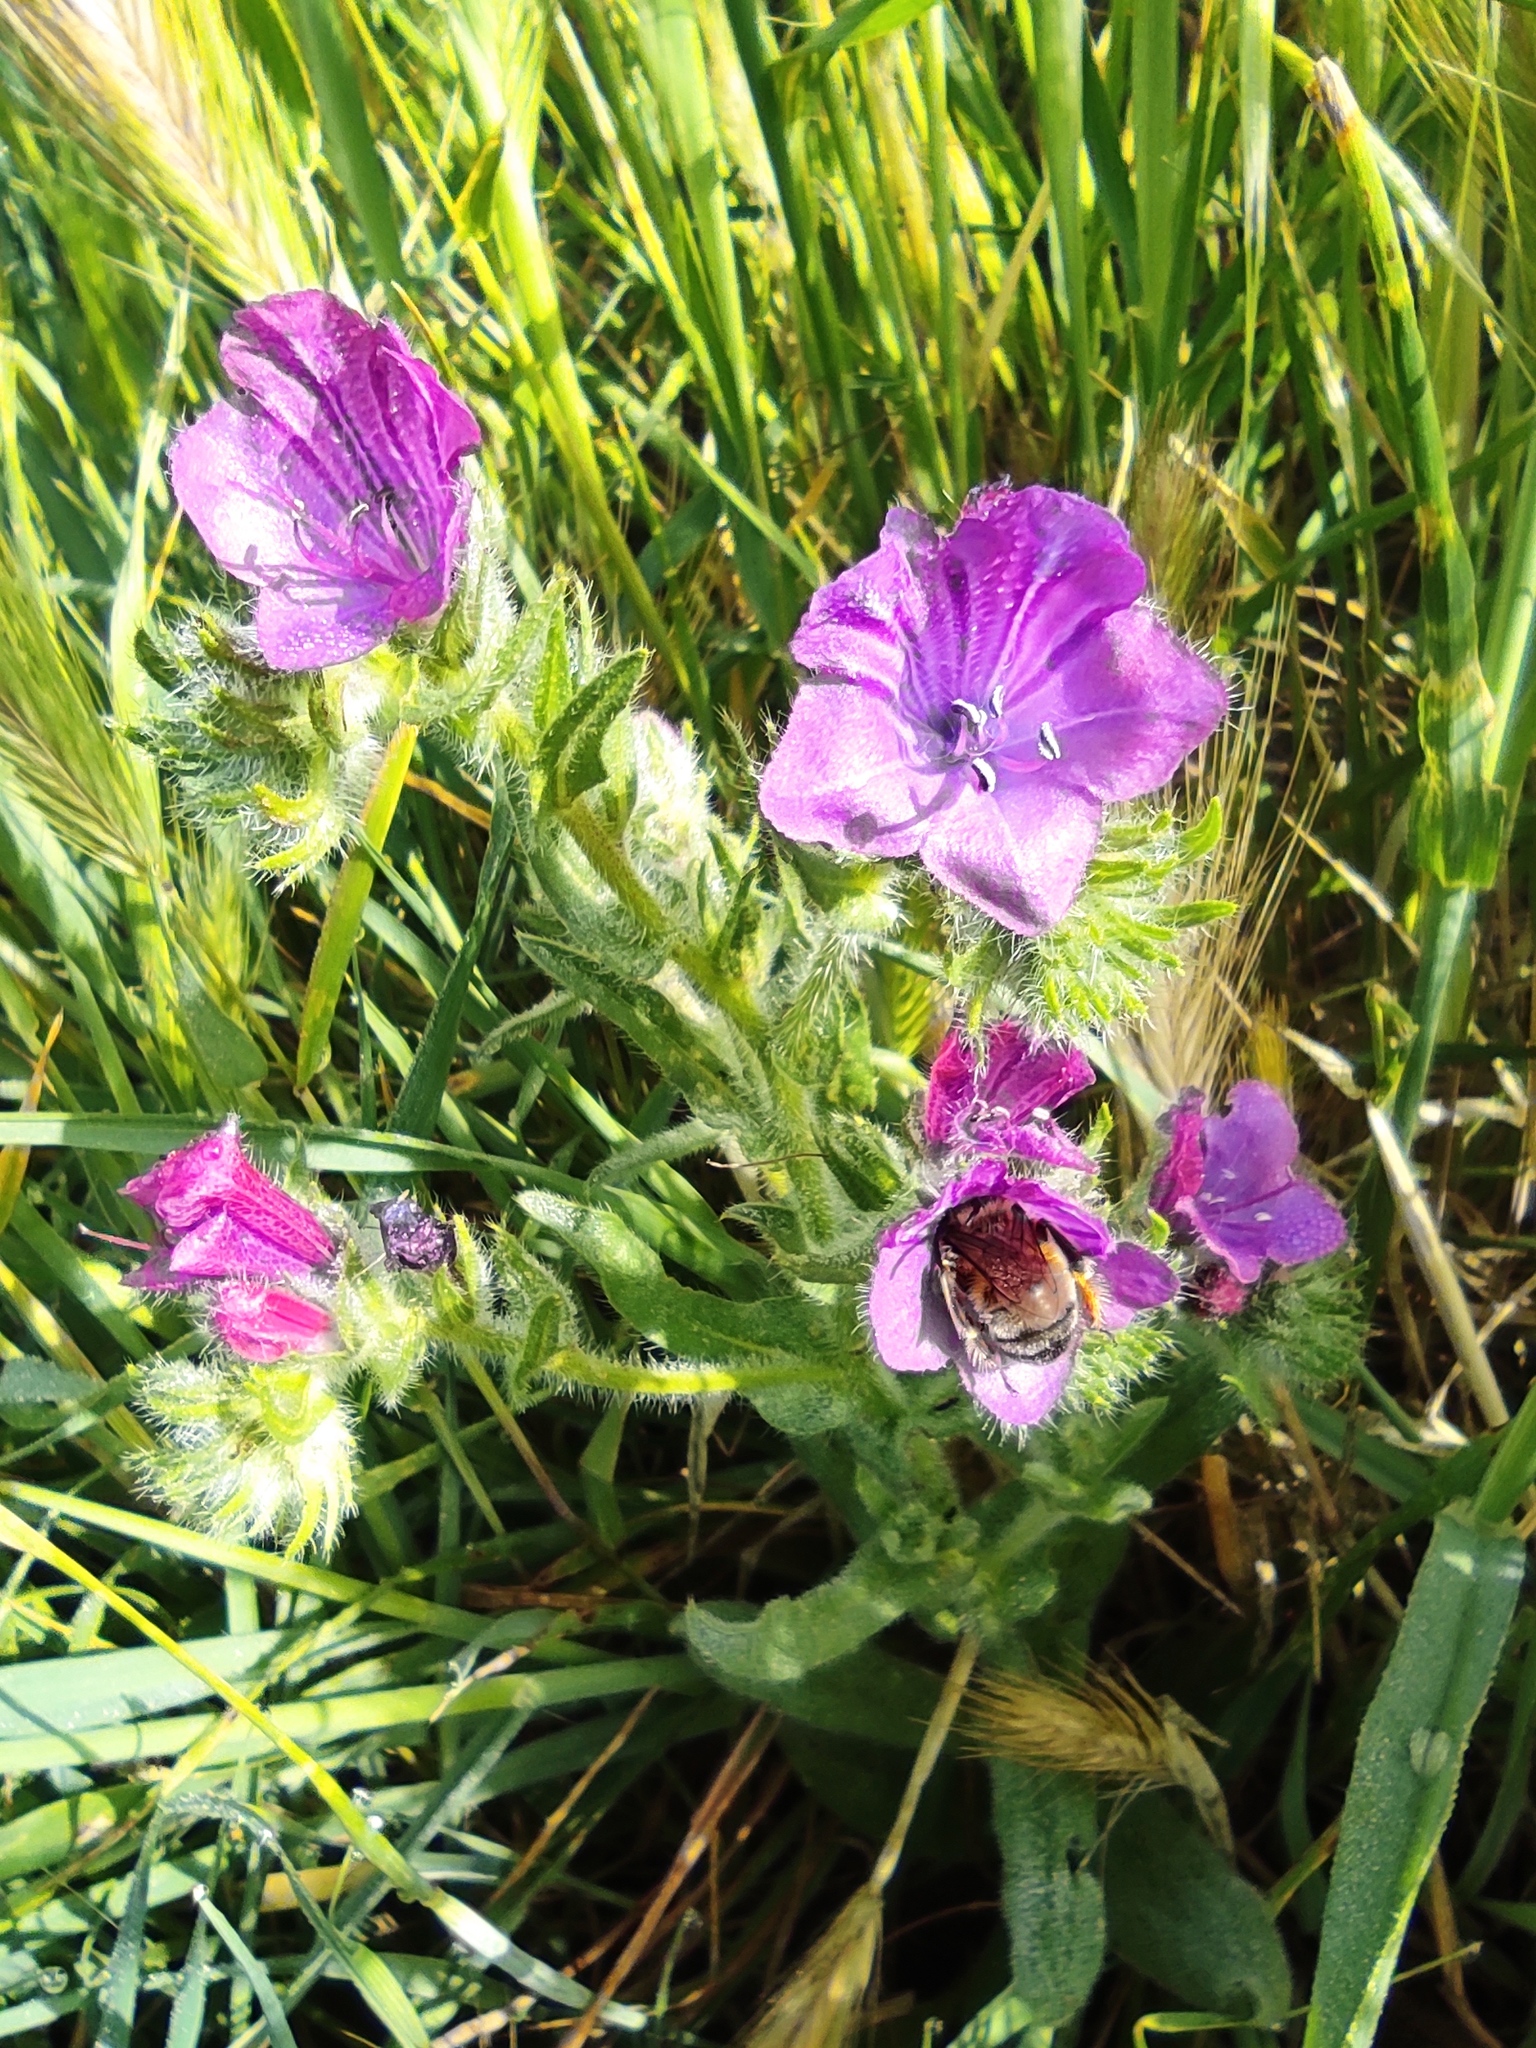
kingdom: Plantae
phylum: Tracheophyta
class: Magnoliopsida
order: Boraginales
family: Boraginaceae
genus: Echium
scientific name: Echium plantagineum
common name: Purple viper's-bugloss
